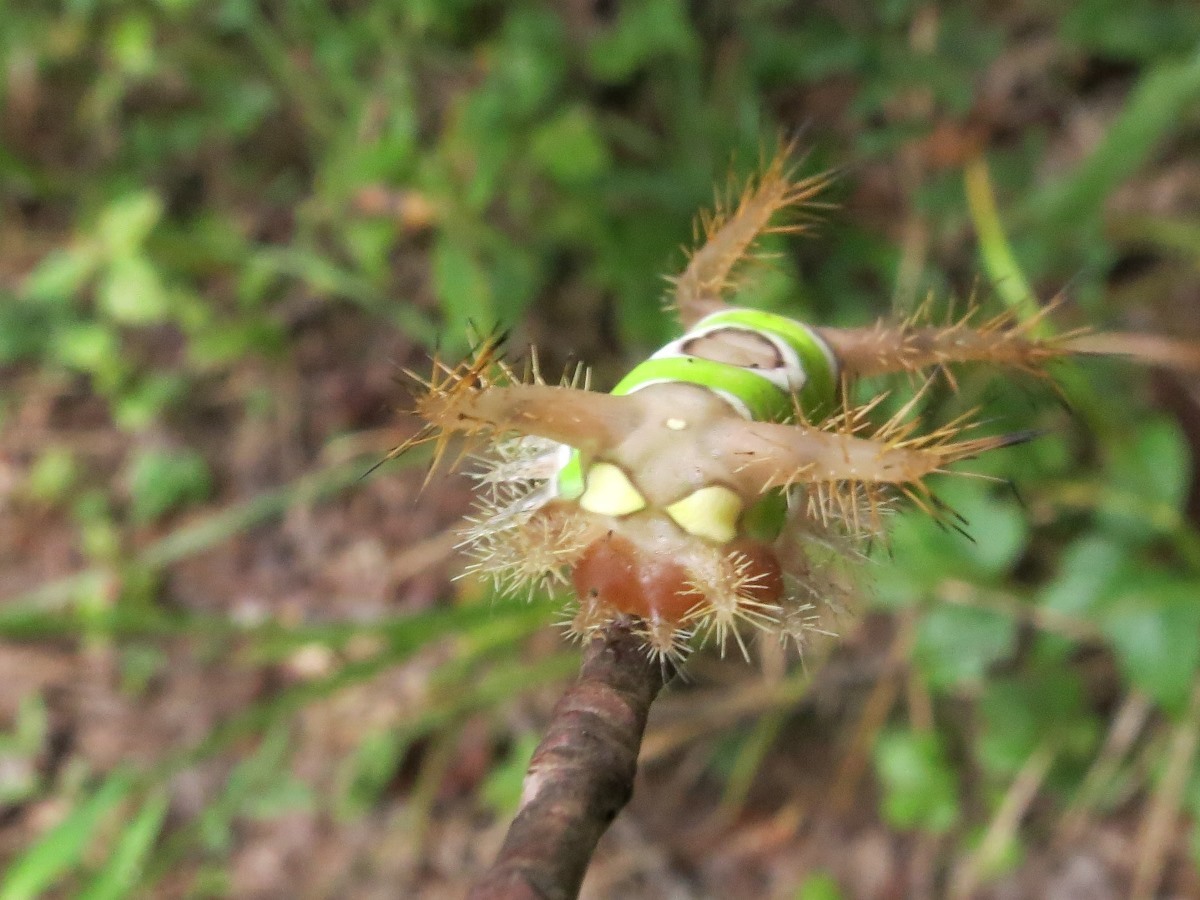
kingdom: Animalia
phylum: Arthropoda
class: Insecta
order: Lepidoptera
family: Limacodidae
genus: Acharia
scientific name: Acharia stimulea
